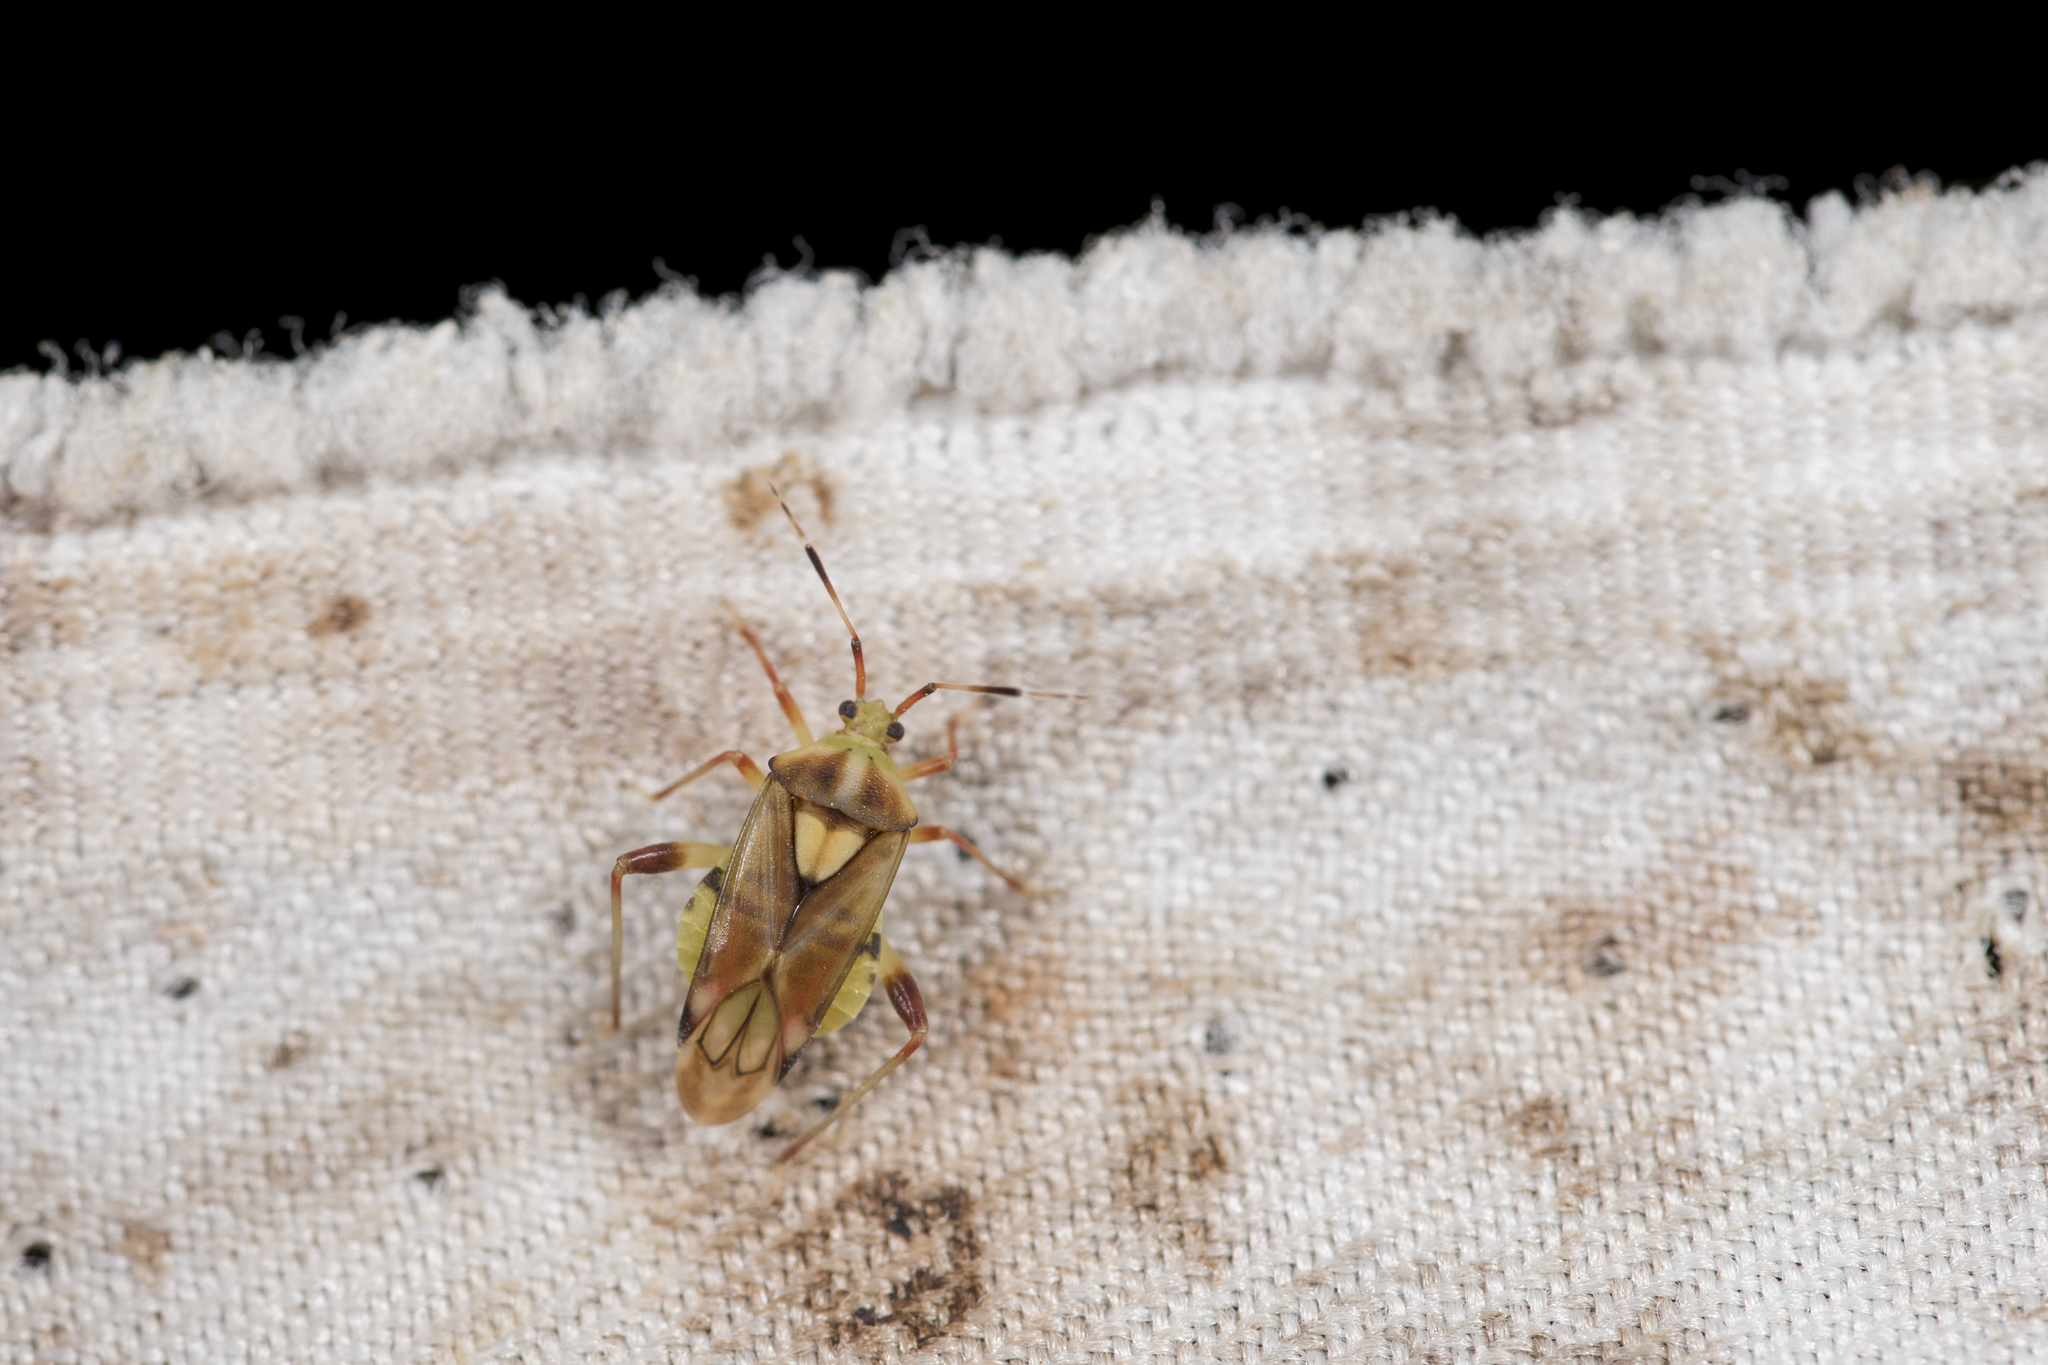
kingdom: Animalia
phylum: Arthropoda
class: Insecta
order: Hemiptera
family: Miridae
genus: Rhopalimiris
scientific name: Rhopalimiris gagai
